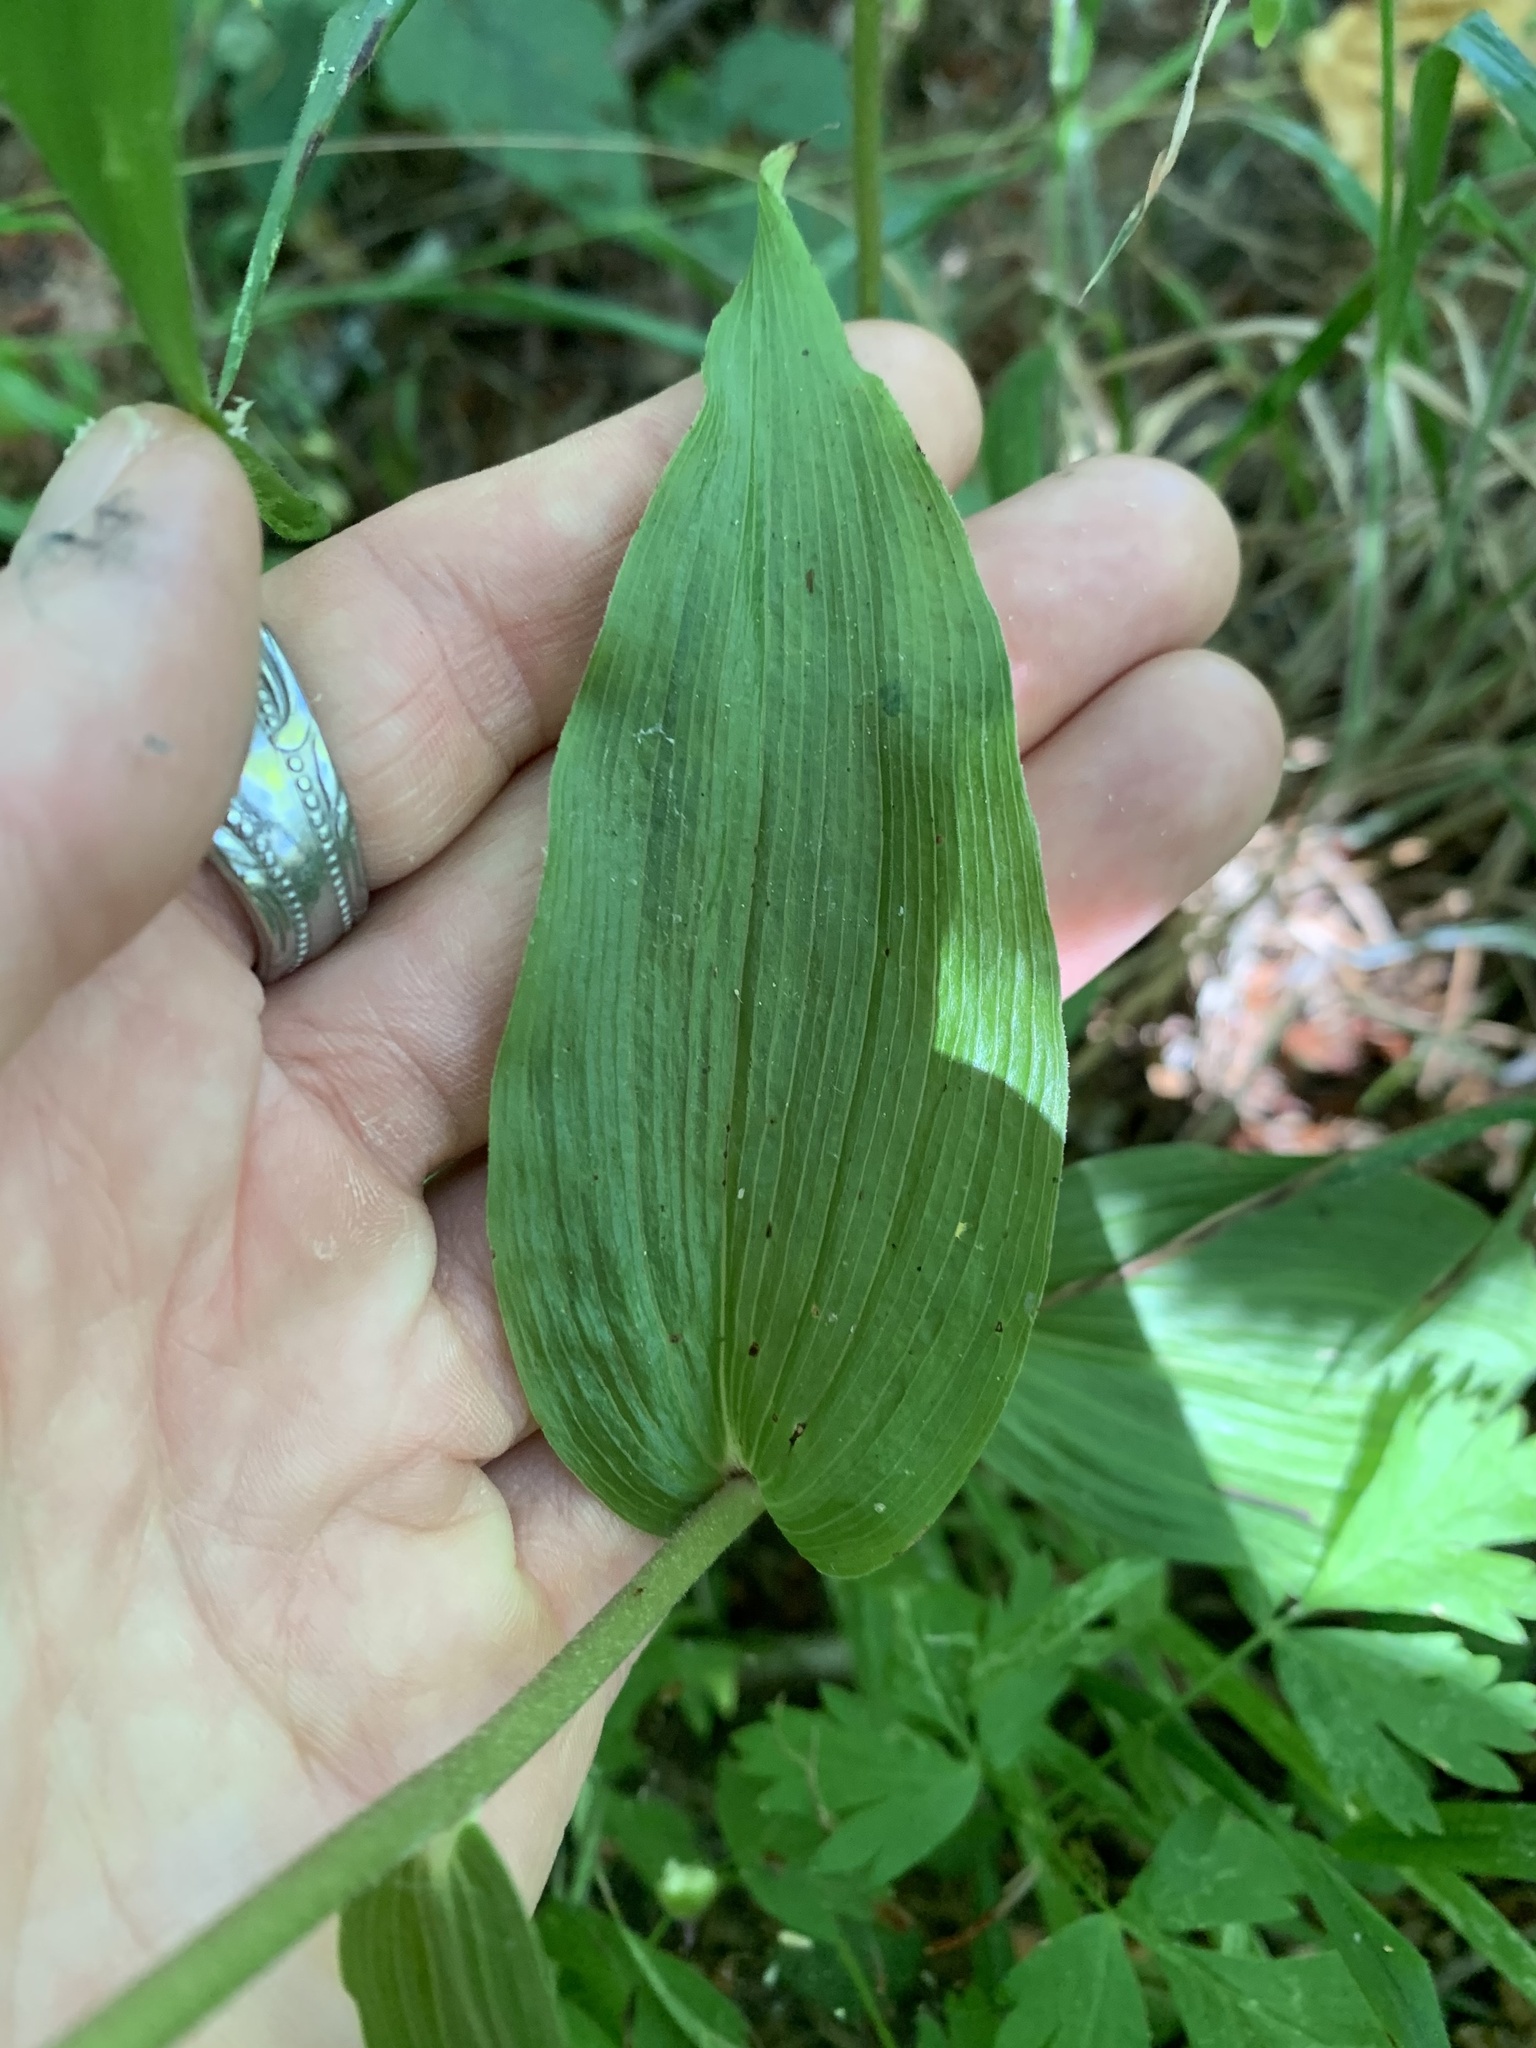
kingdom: Plantae
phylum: Tracheophyta
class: Liliopsida
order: Asparagales
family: Orchidaceae
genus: Epipactis
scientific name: Epipactis helleborine
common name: Broad-leaved helleborine
